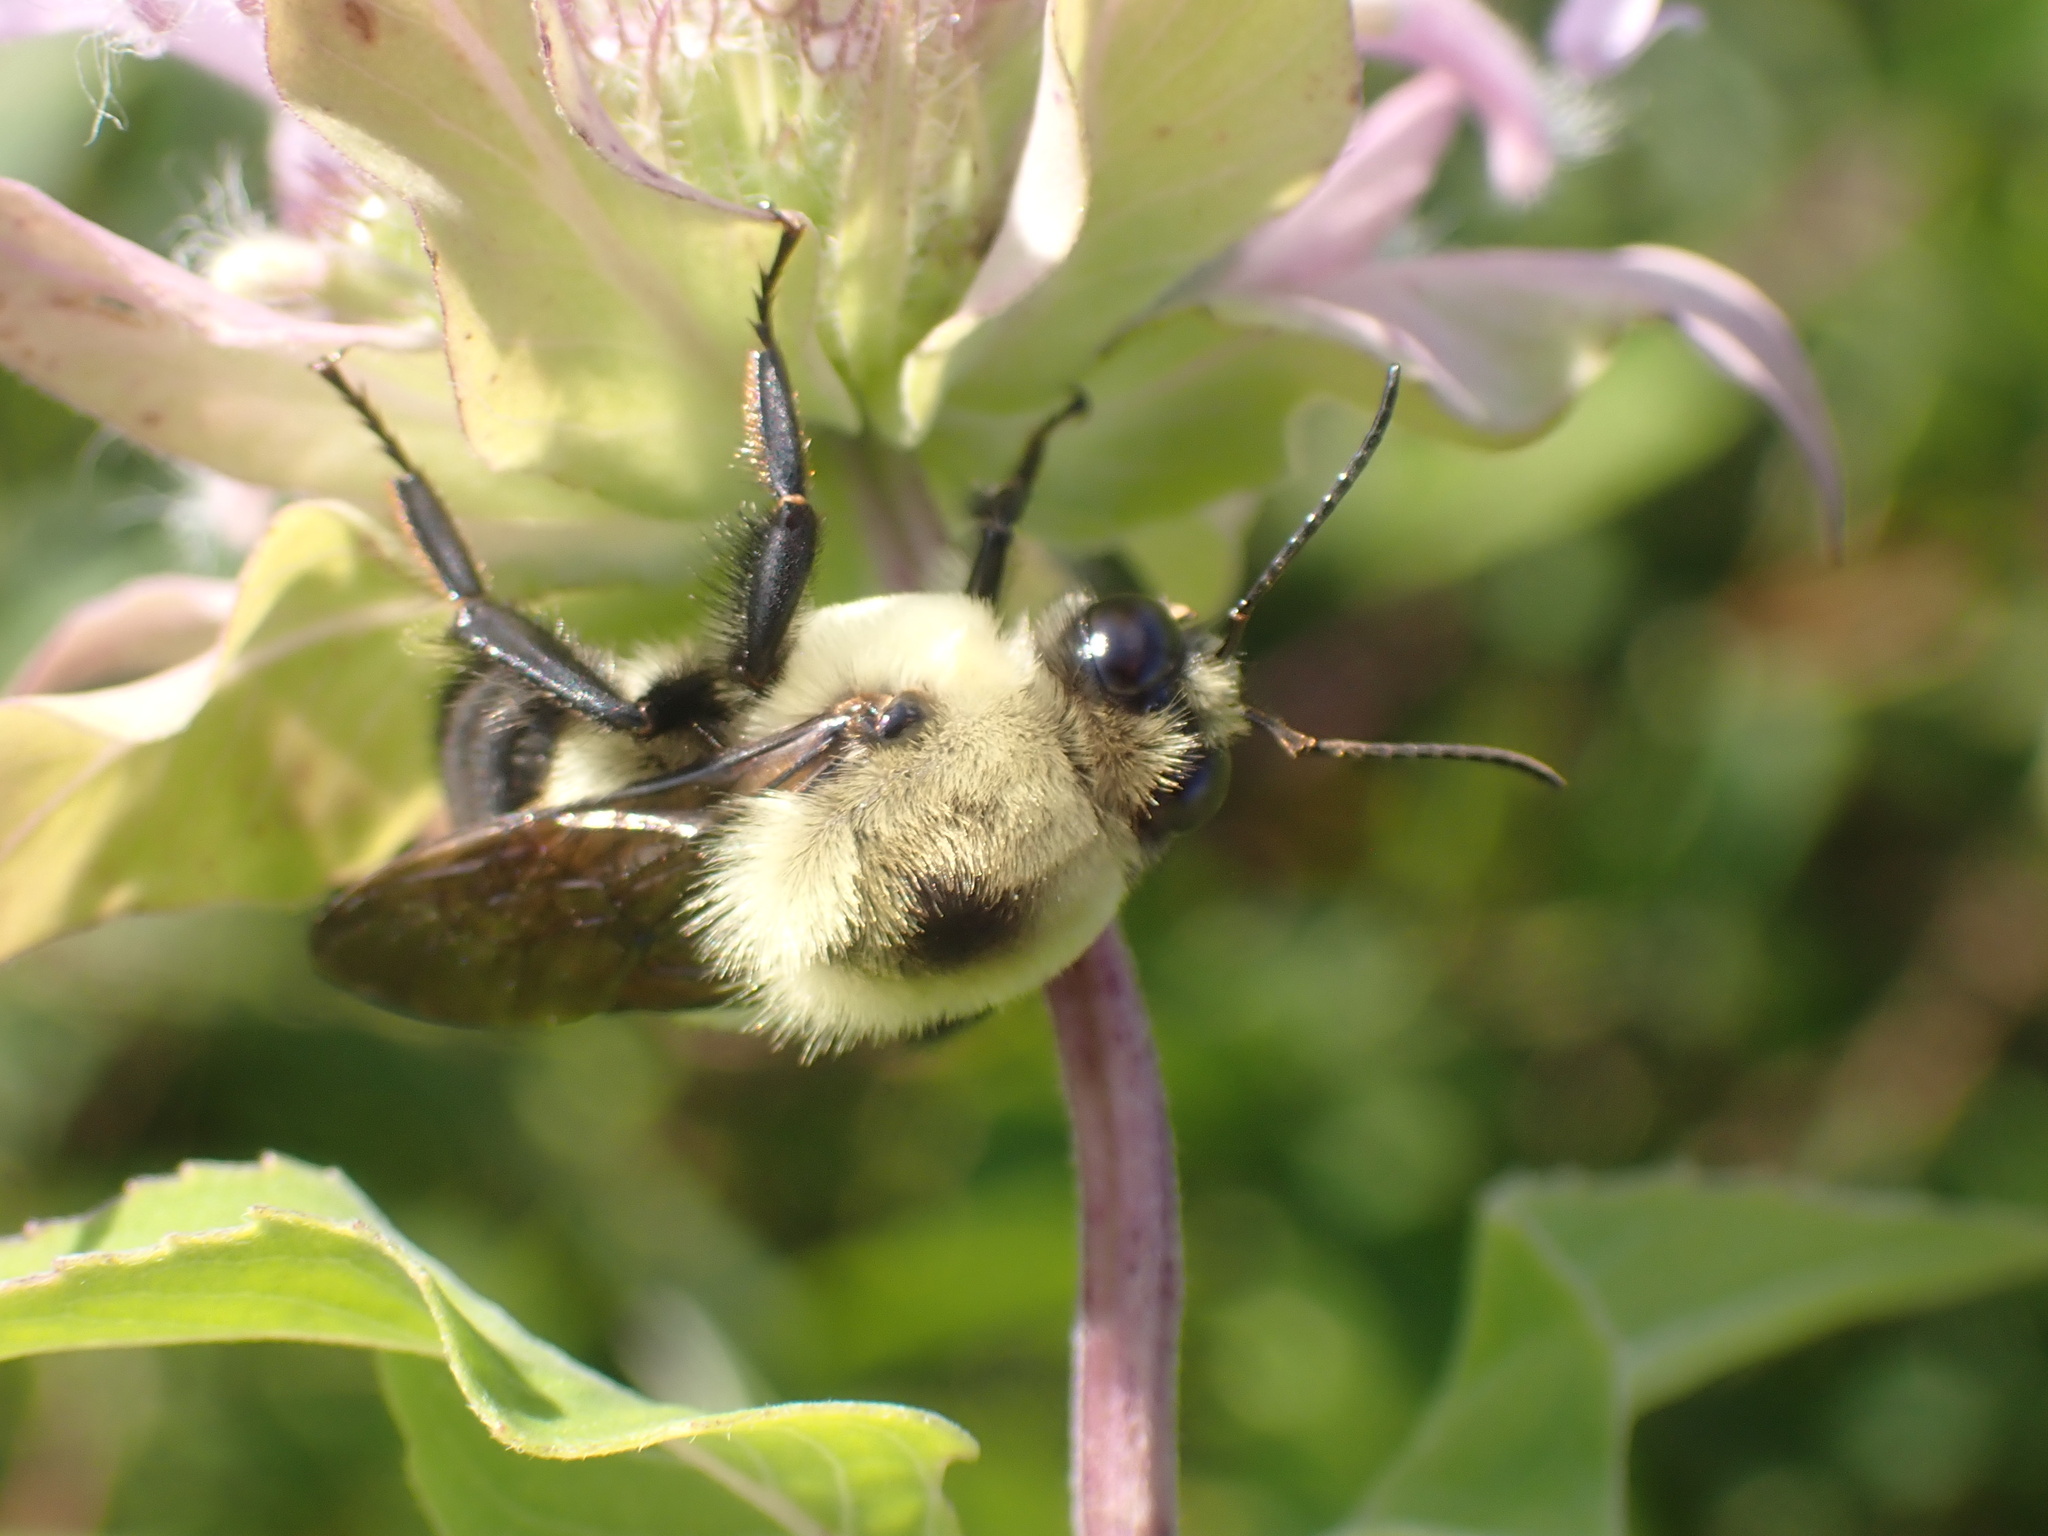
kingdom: Animalia
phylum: Arthropoda
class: Insecta
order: Hymenoptera
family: Apidae
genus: Bombus
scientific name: Bombus griseocollis
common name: Brown-belted bumble bee
